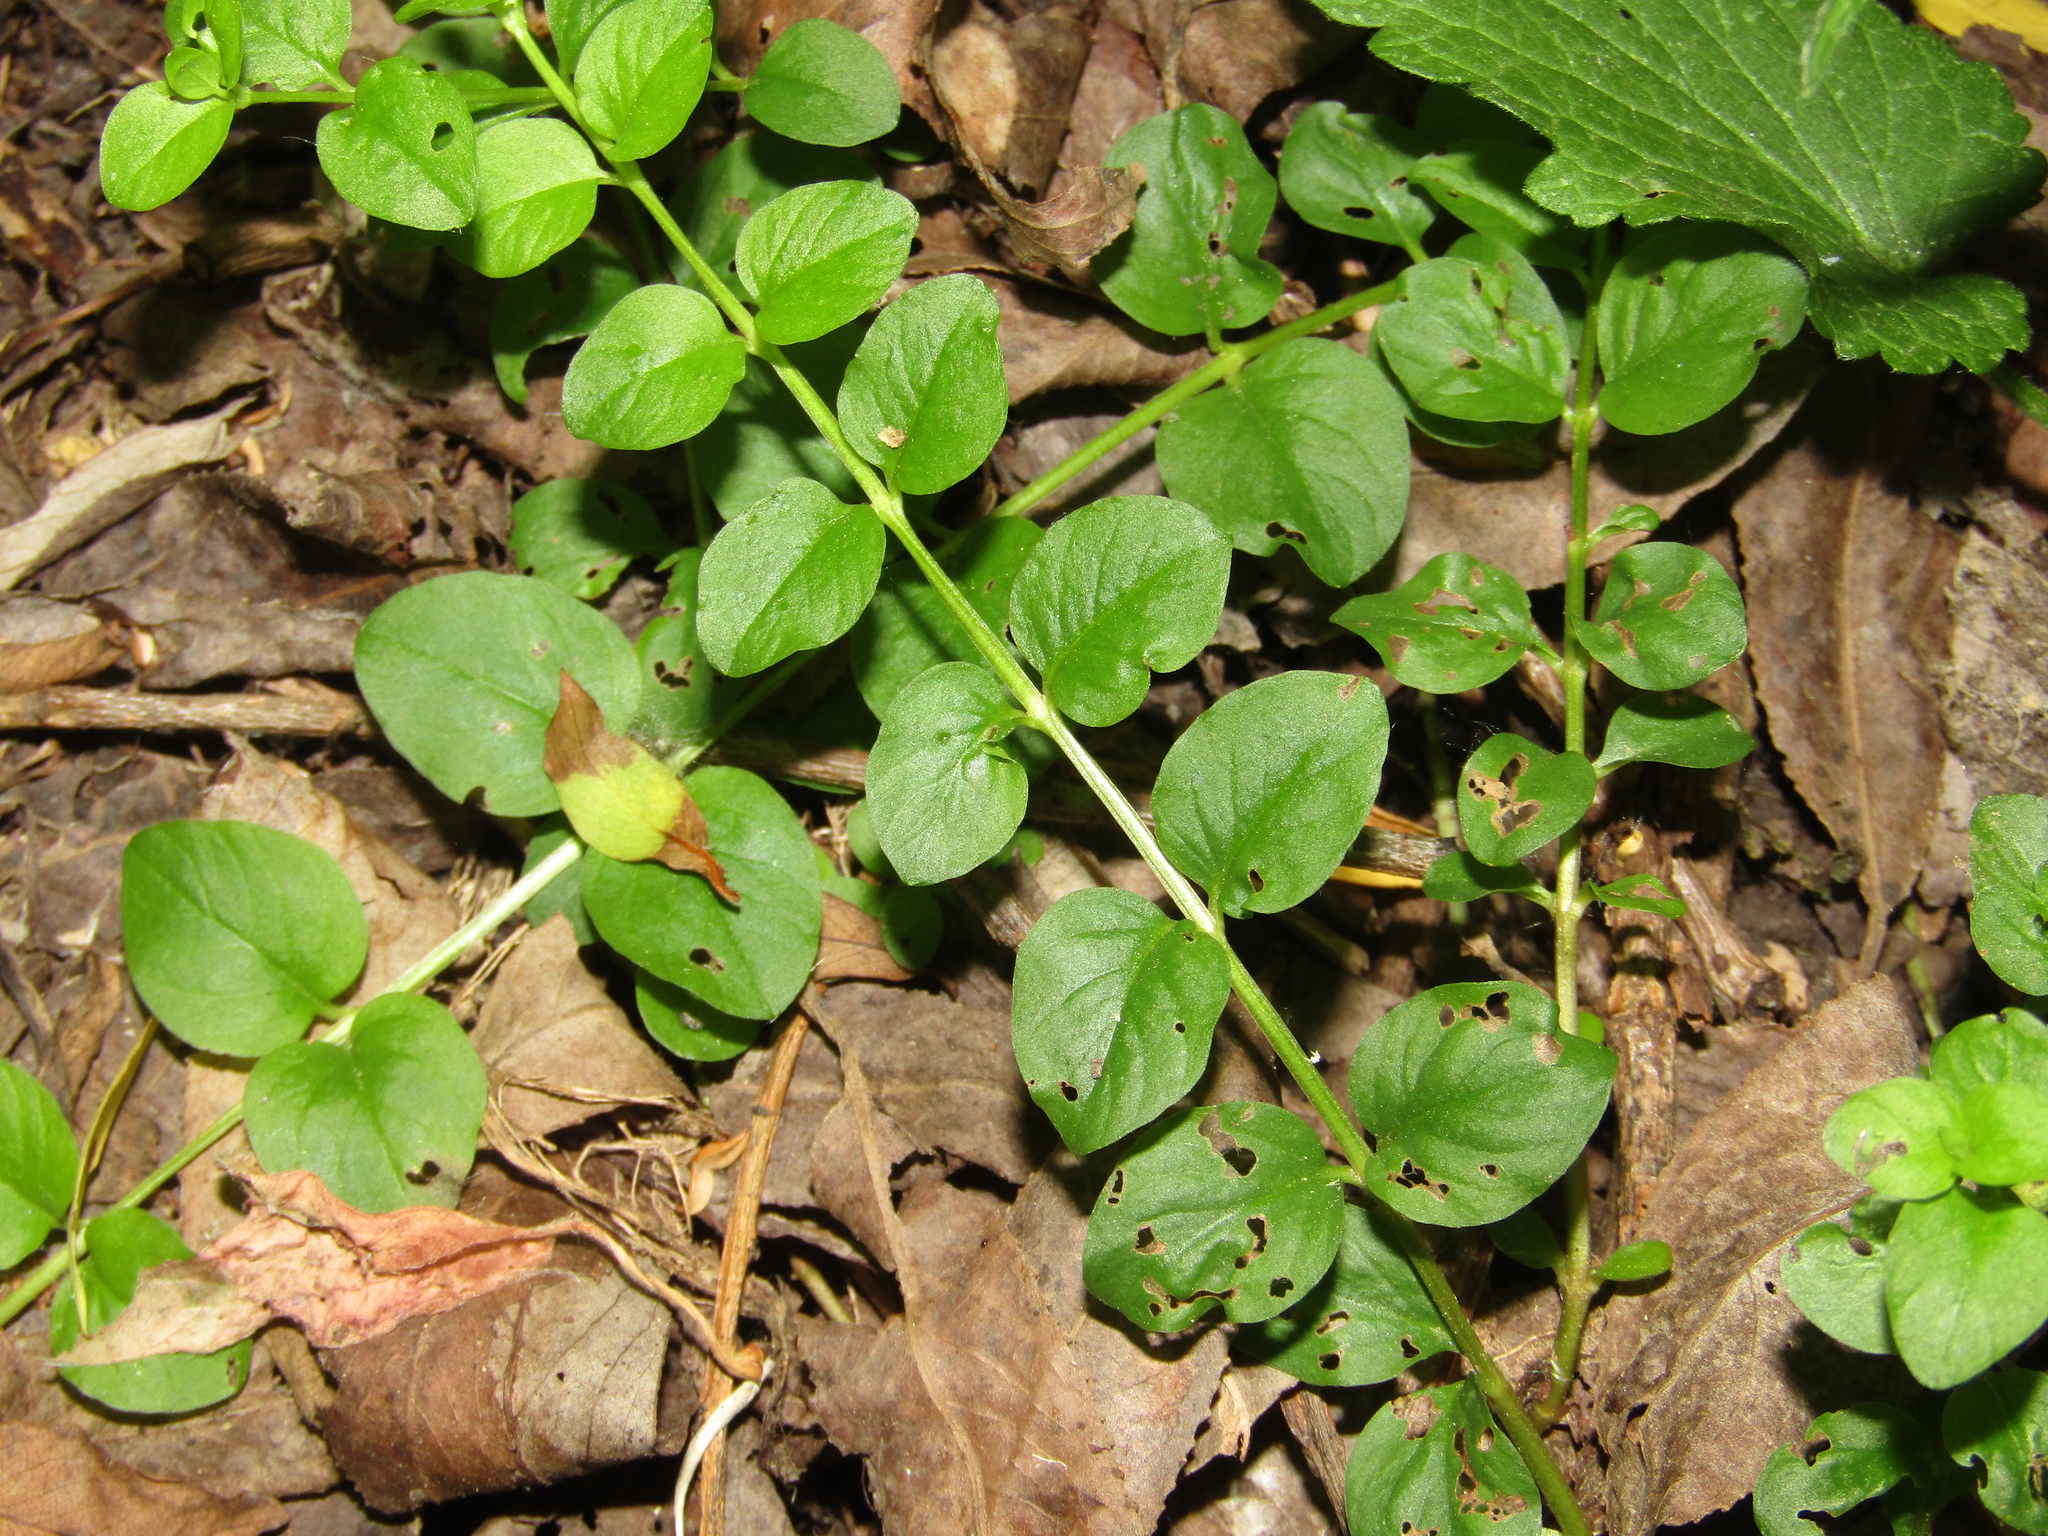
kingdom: Plantae
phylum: Tracheophyta
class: Magnoliopsida
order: Ericales
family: Primulaceae
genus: Lysimachia
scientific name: Lysimachia nummularia
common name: Moneywort
